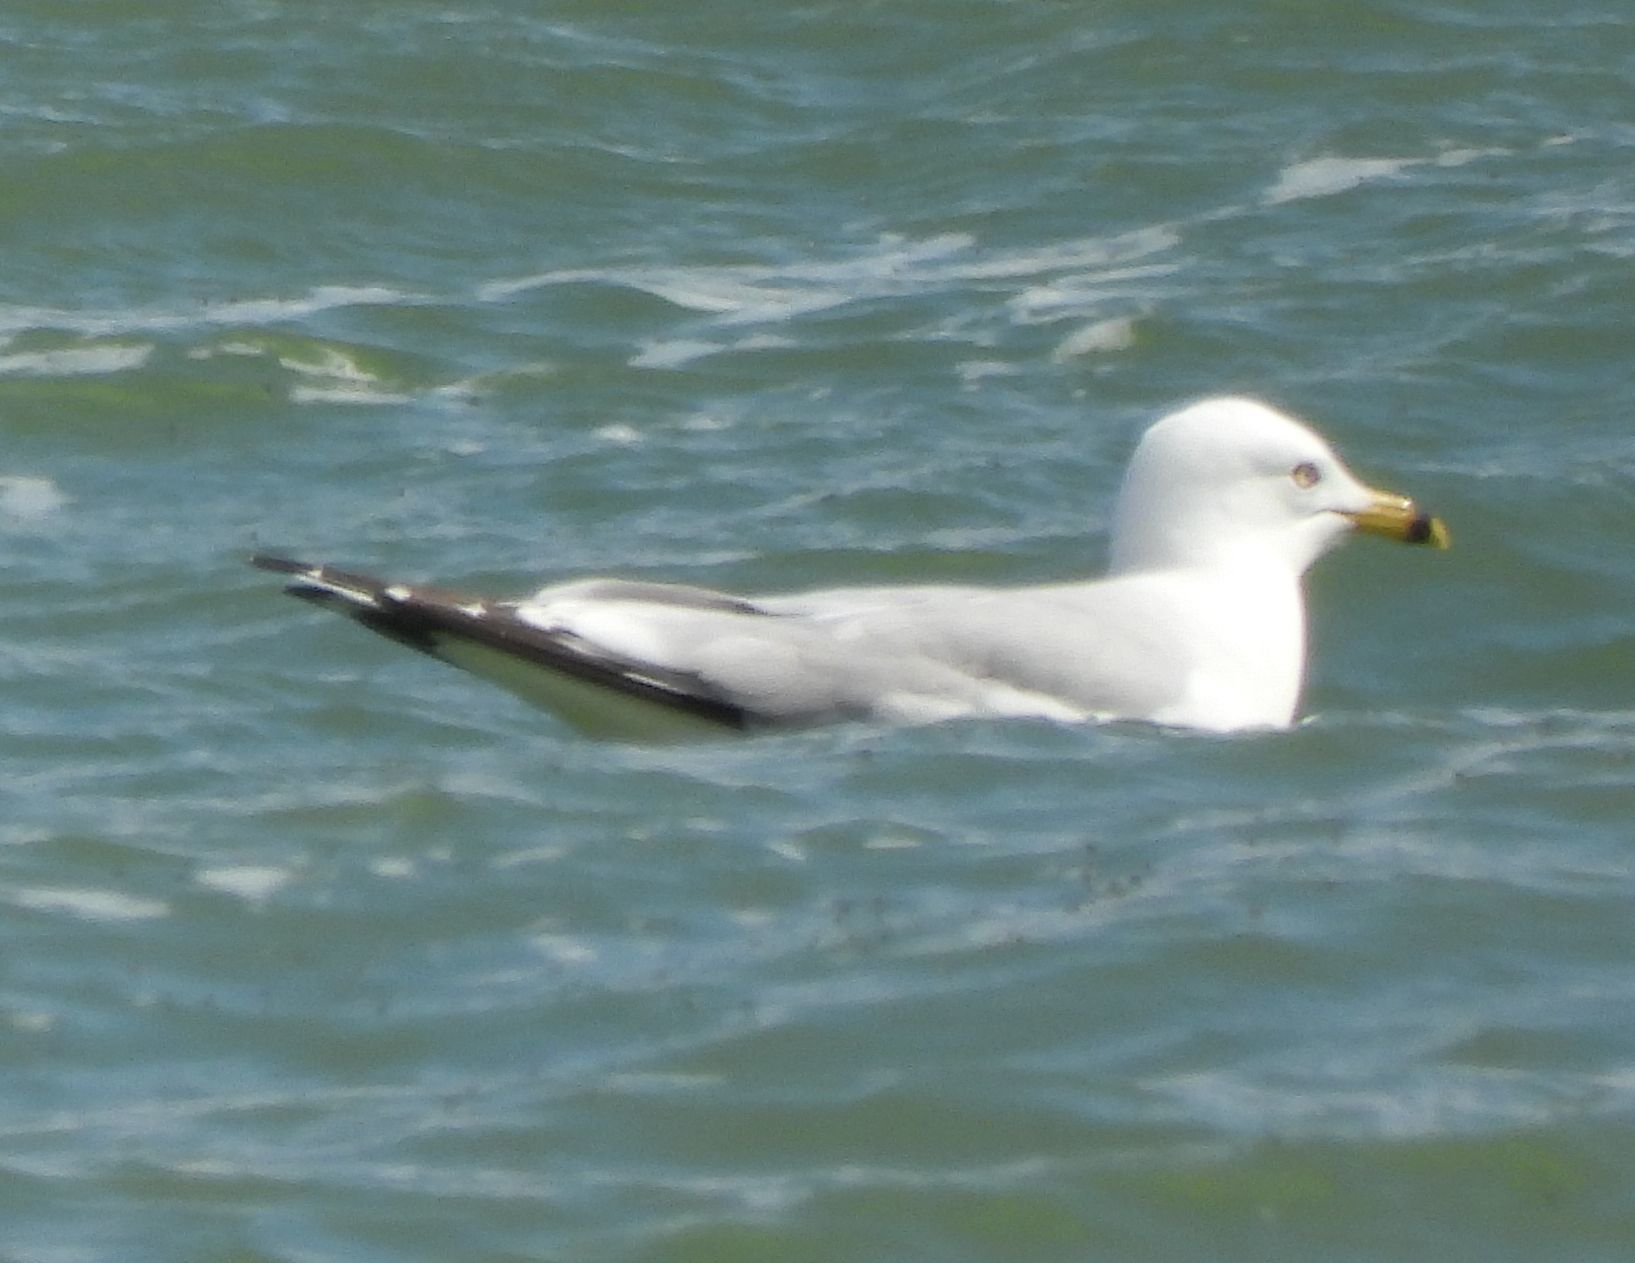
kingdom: Animalia
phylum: Chordata
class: Aves
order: Charadriiformes
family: Laridae
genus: Larus
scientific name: Larus delawarensis
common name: Ring-billed gull
